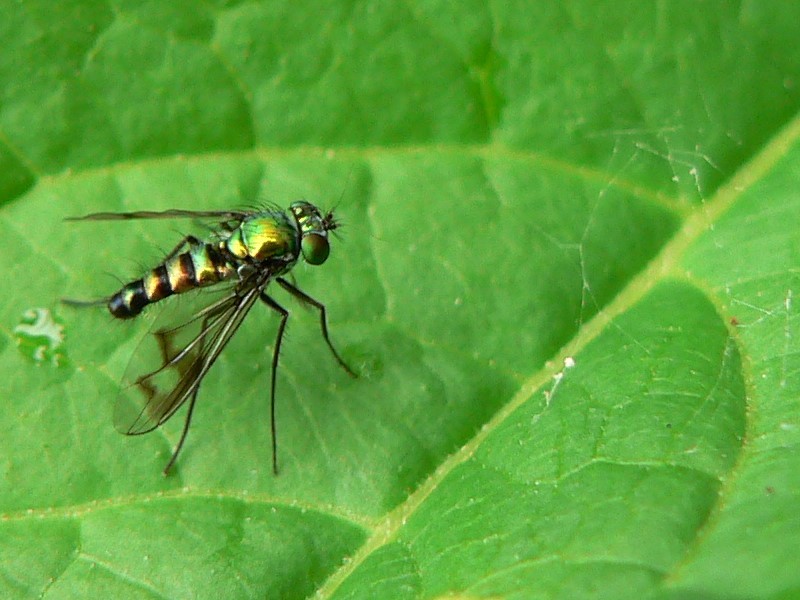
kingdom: Animalia
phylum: Arthropoda
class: Insecta
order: Diptera
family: Dolichopodidae
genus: Condylostylus
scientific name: Condylostylus occidentalis
